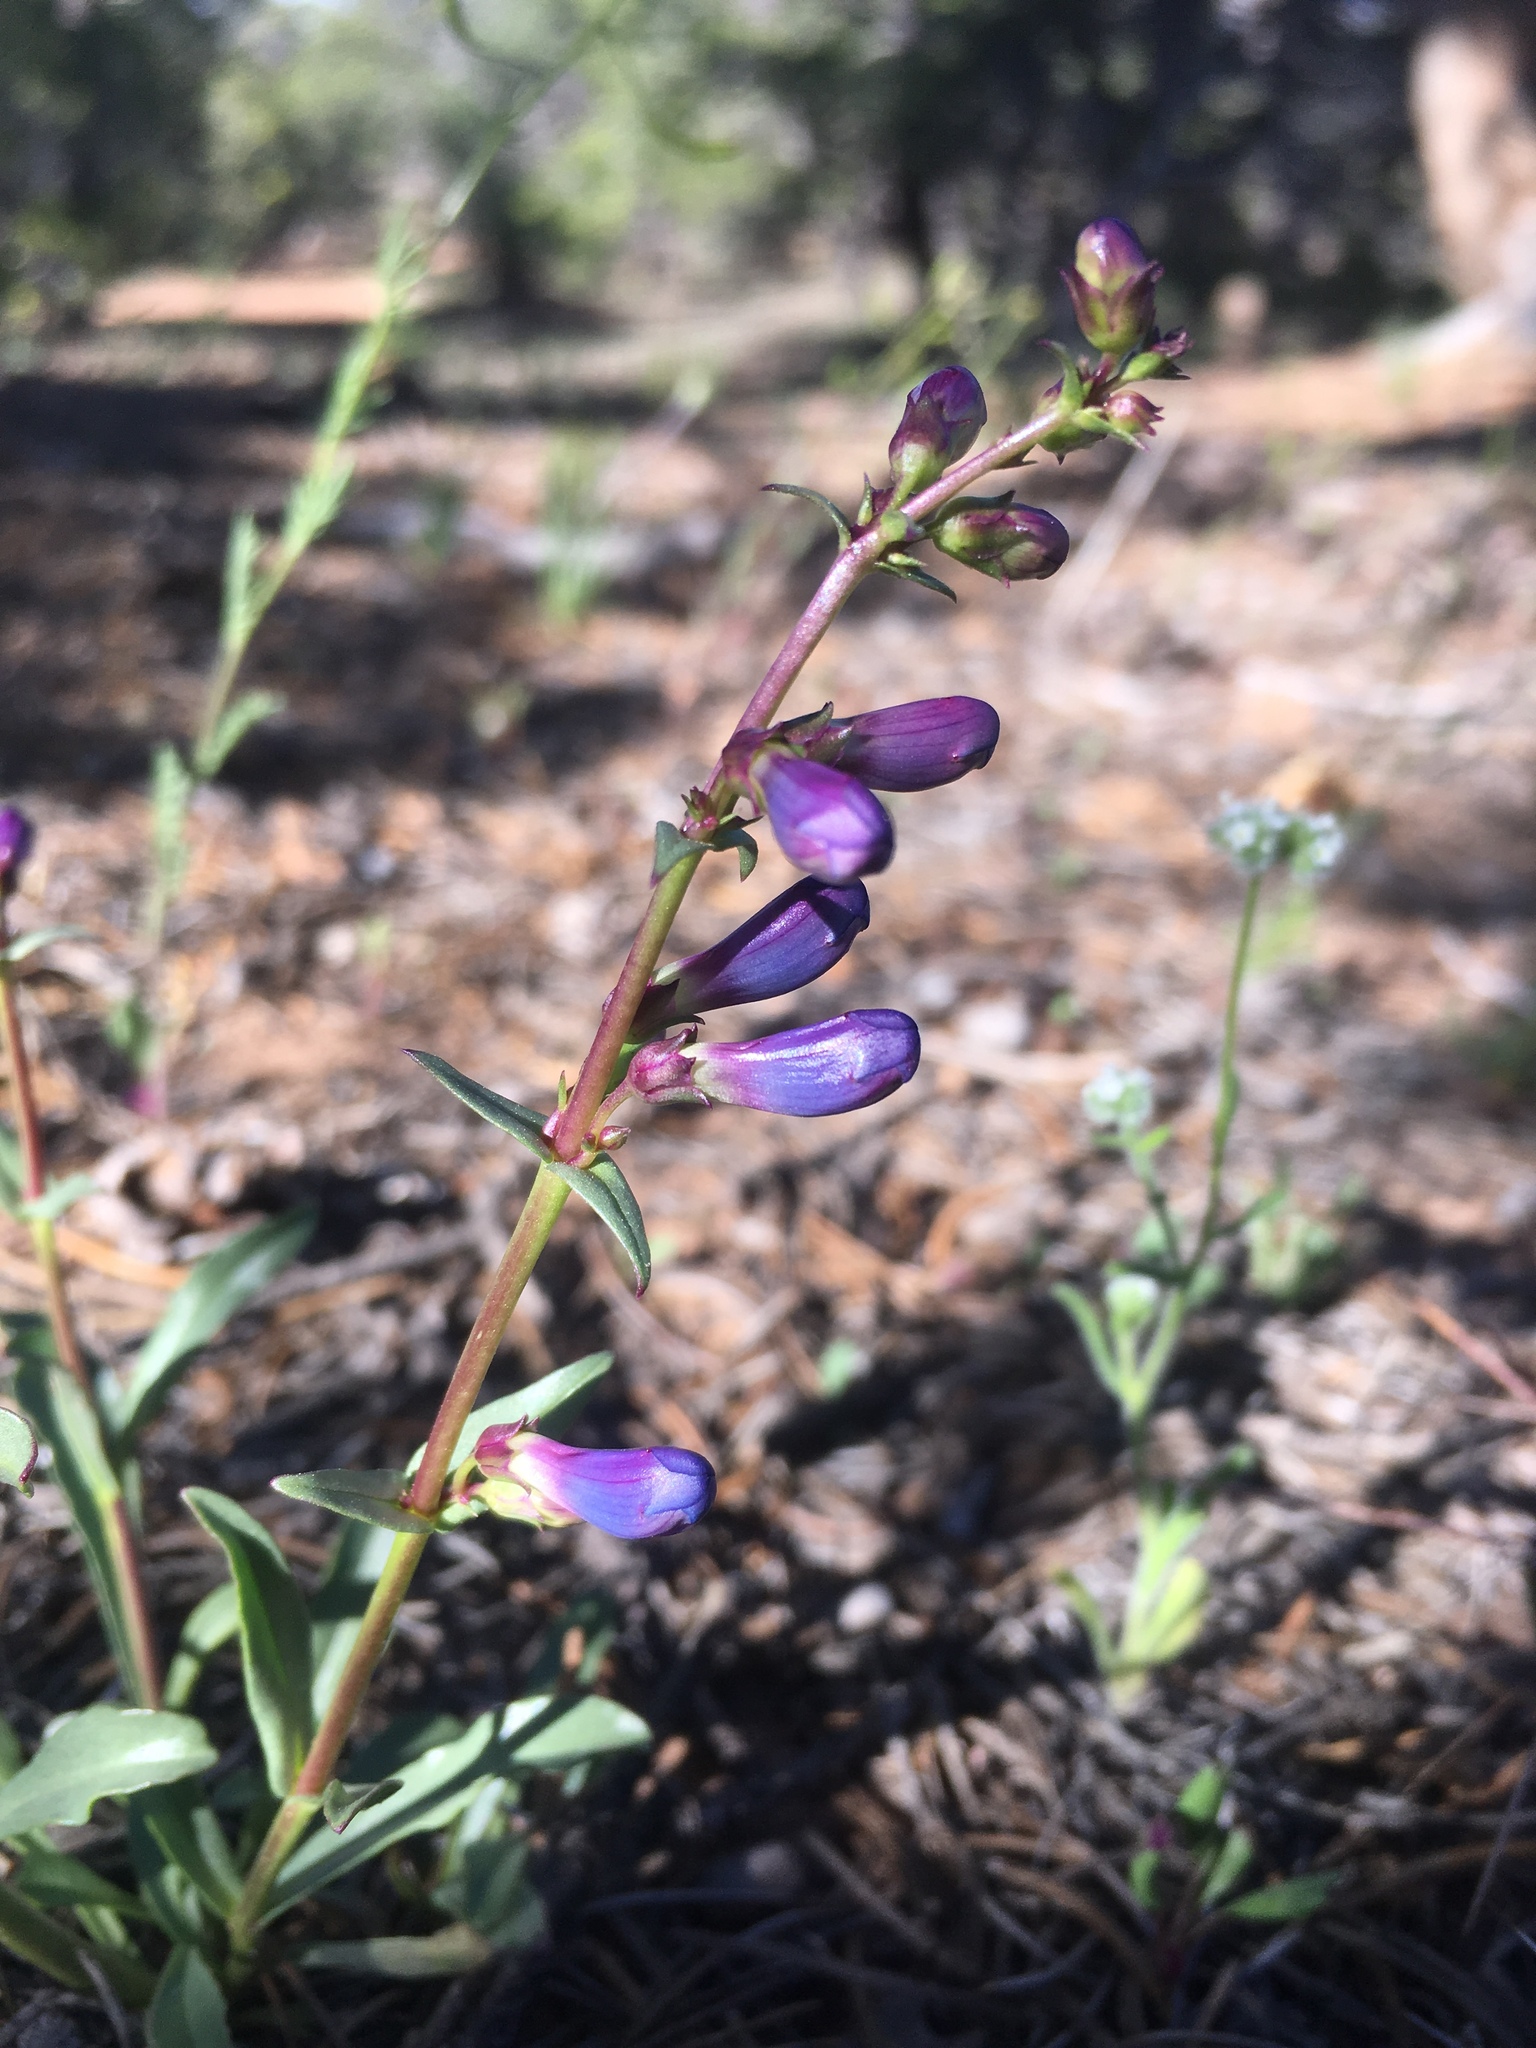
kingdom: Plantae
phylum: Tracheophyta
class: Magnoliopsida
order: Lamiales
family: Plantaginaceae
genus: Penstemon
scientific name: Penstemon cyanocaulis
